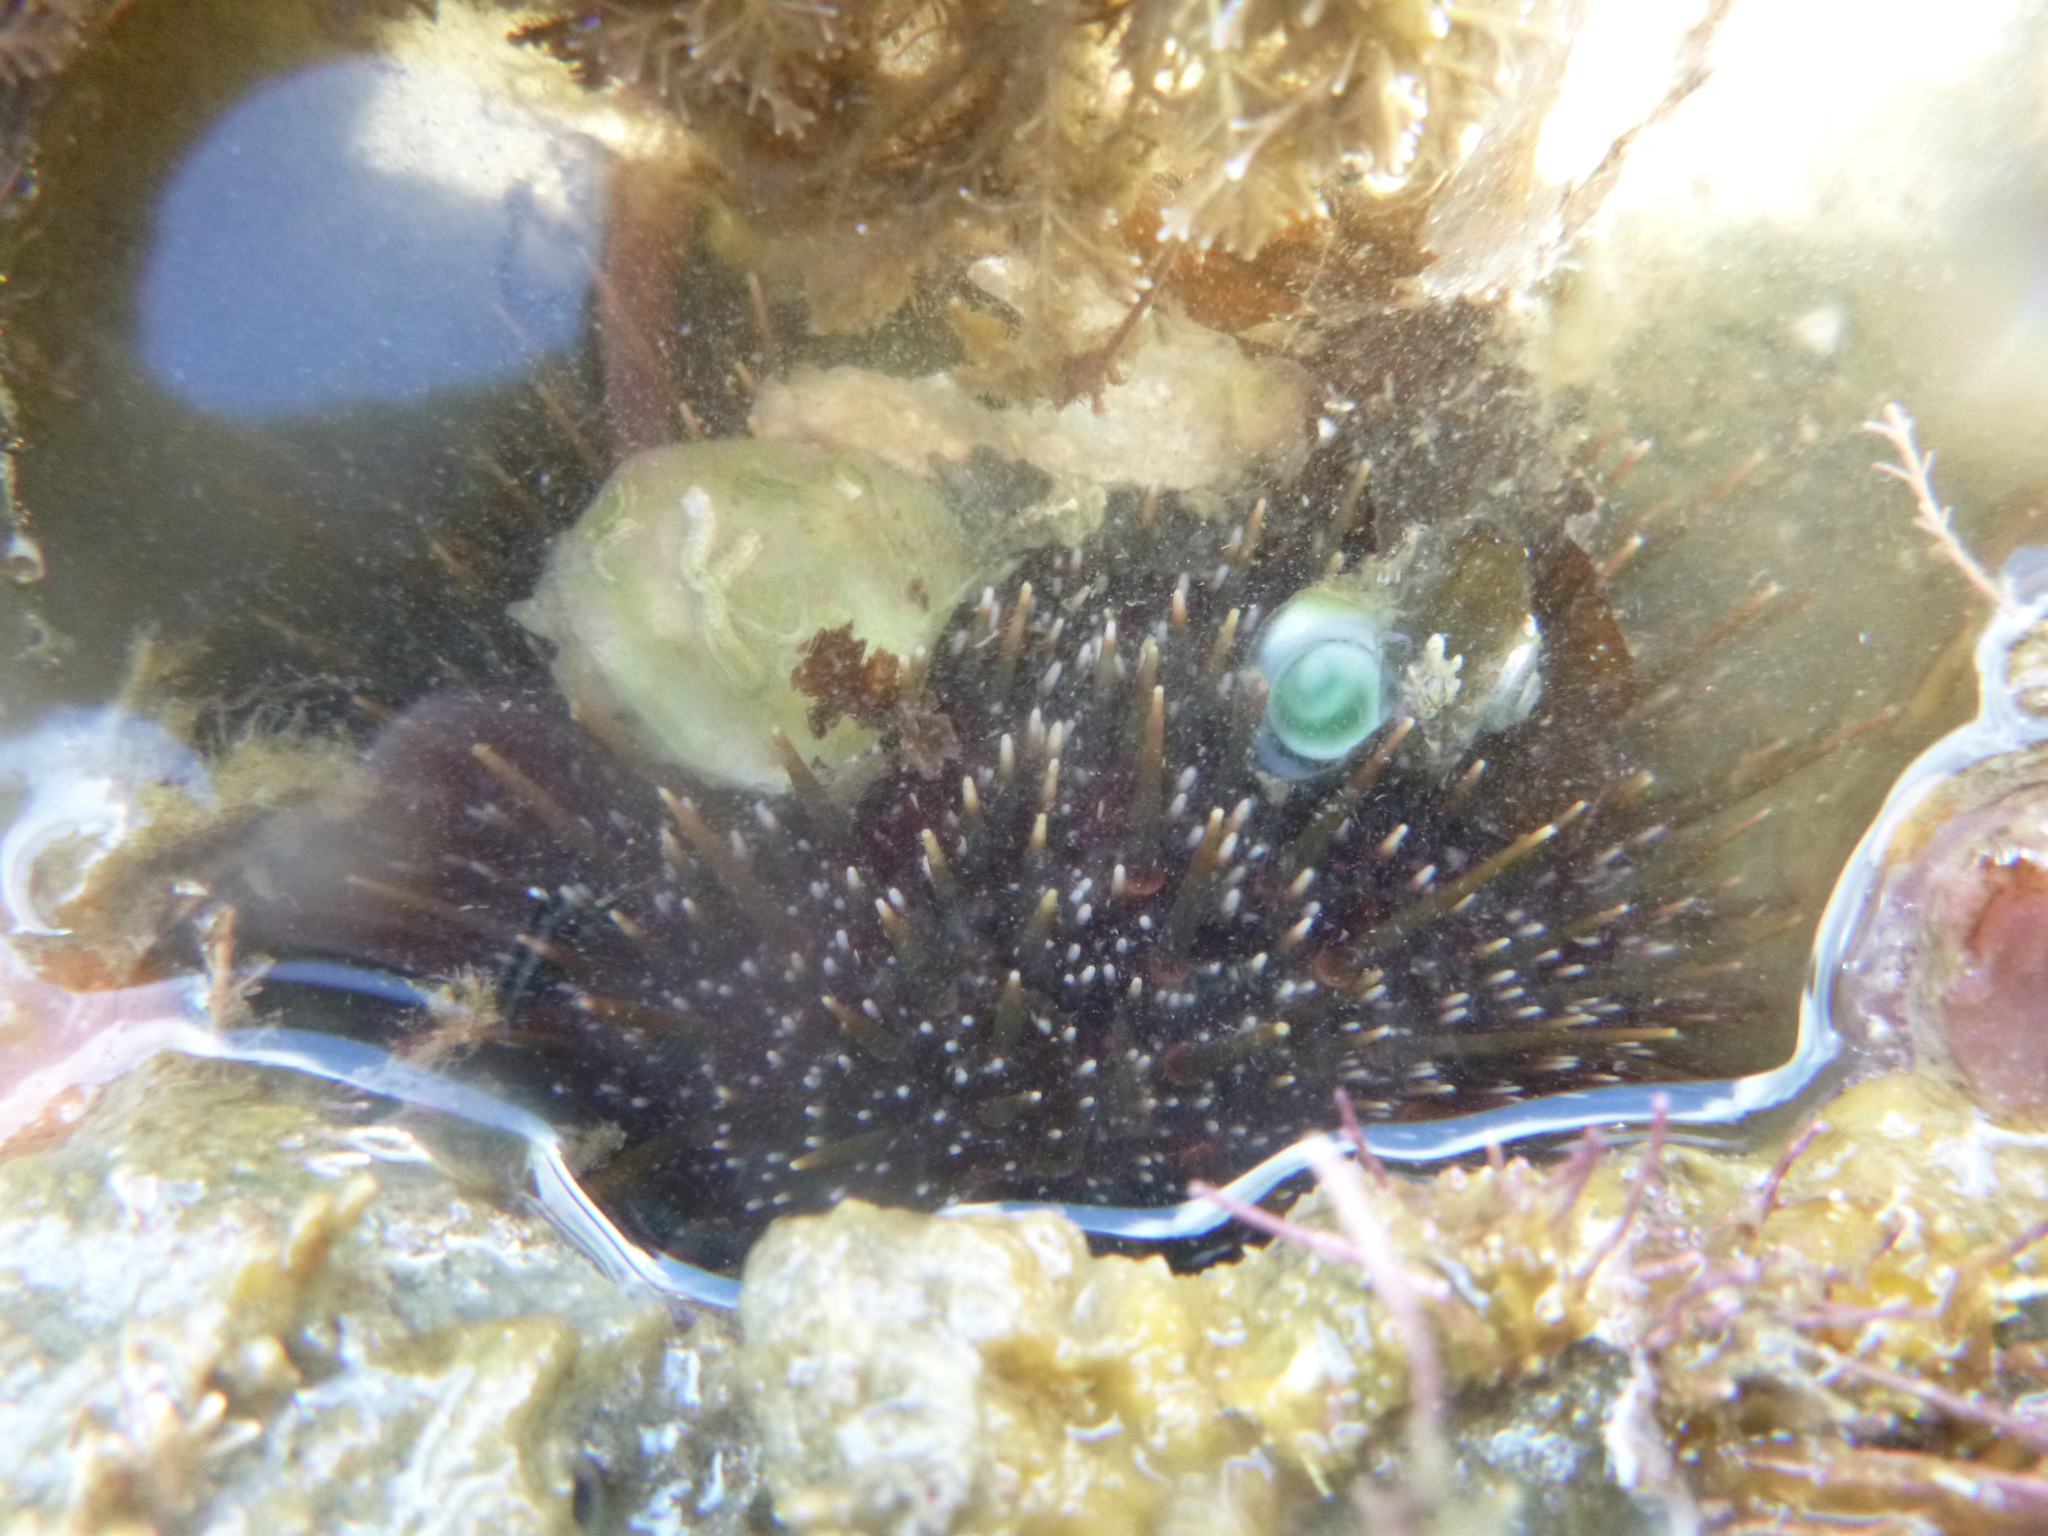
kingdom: Animalia
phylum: Echinodermata
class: Echinoidea
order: Camarodonta
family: Echinometridae
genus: Evechinus
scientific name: Evechinus chloroticus
